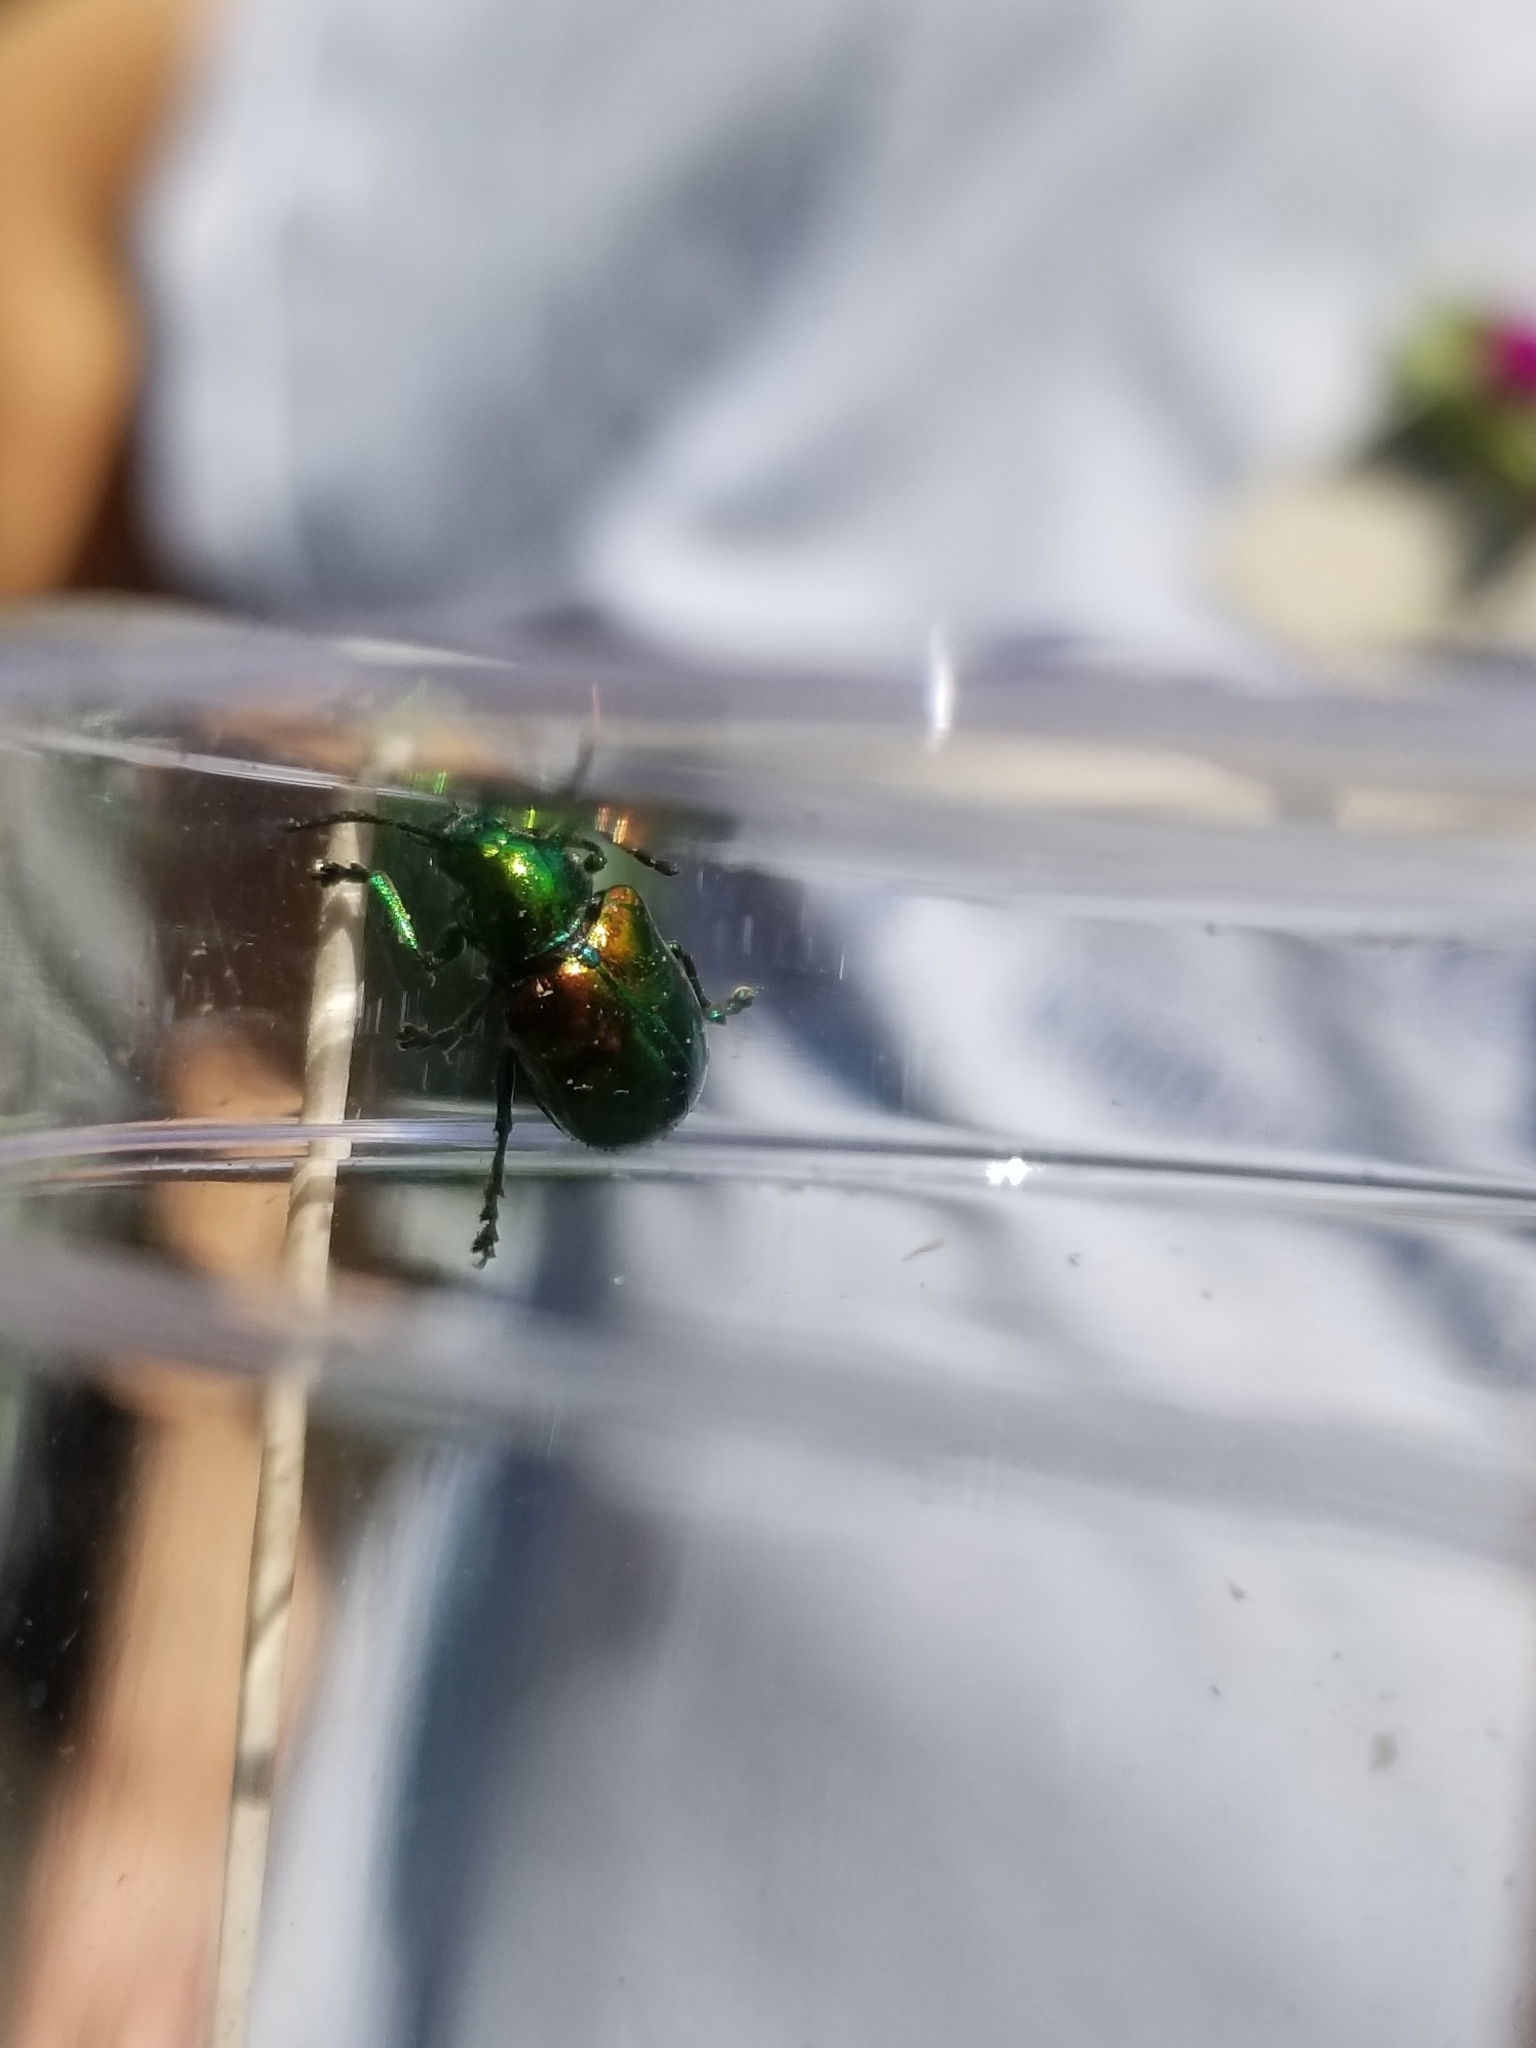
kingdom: Animalia
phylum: Arthropoda
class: Insecta
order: Coleoptera
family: Chrysomelidae
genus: Chrysochus
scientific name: Chrysochus auratus
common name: Dogbane leaf beetle
